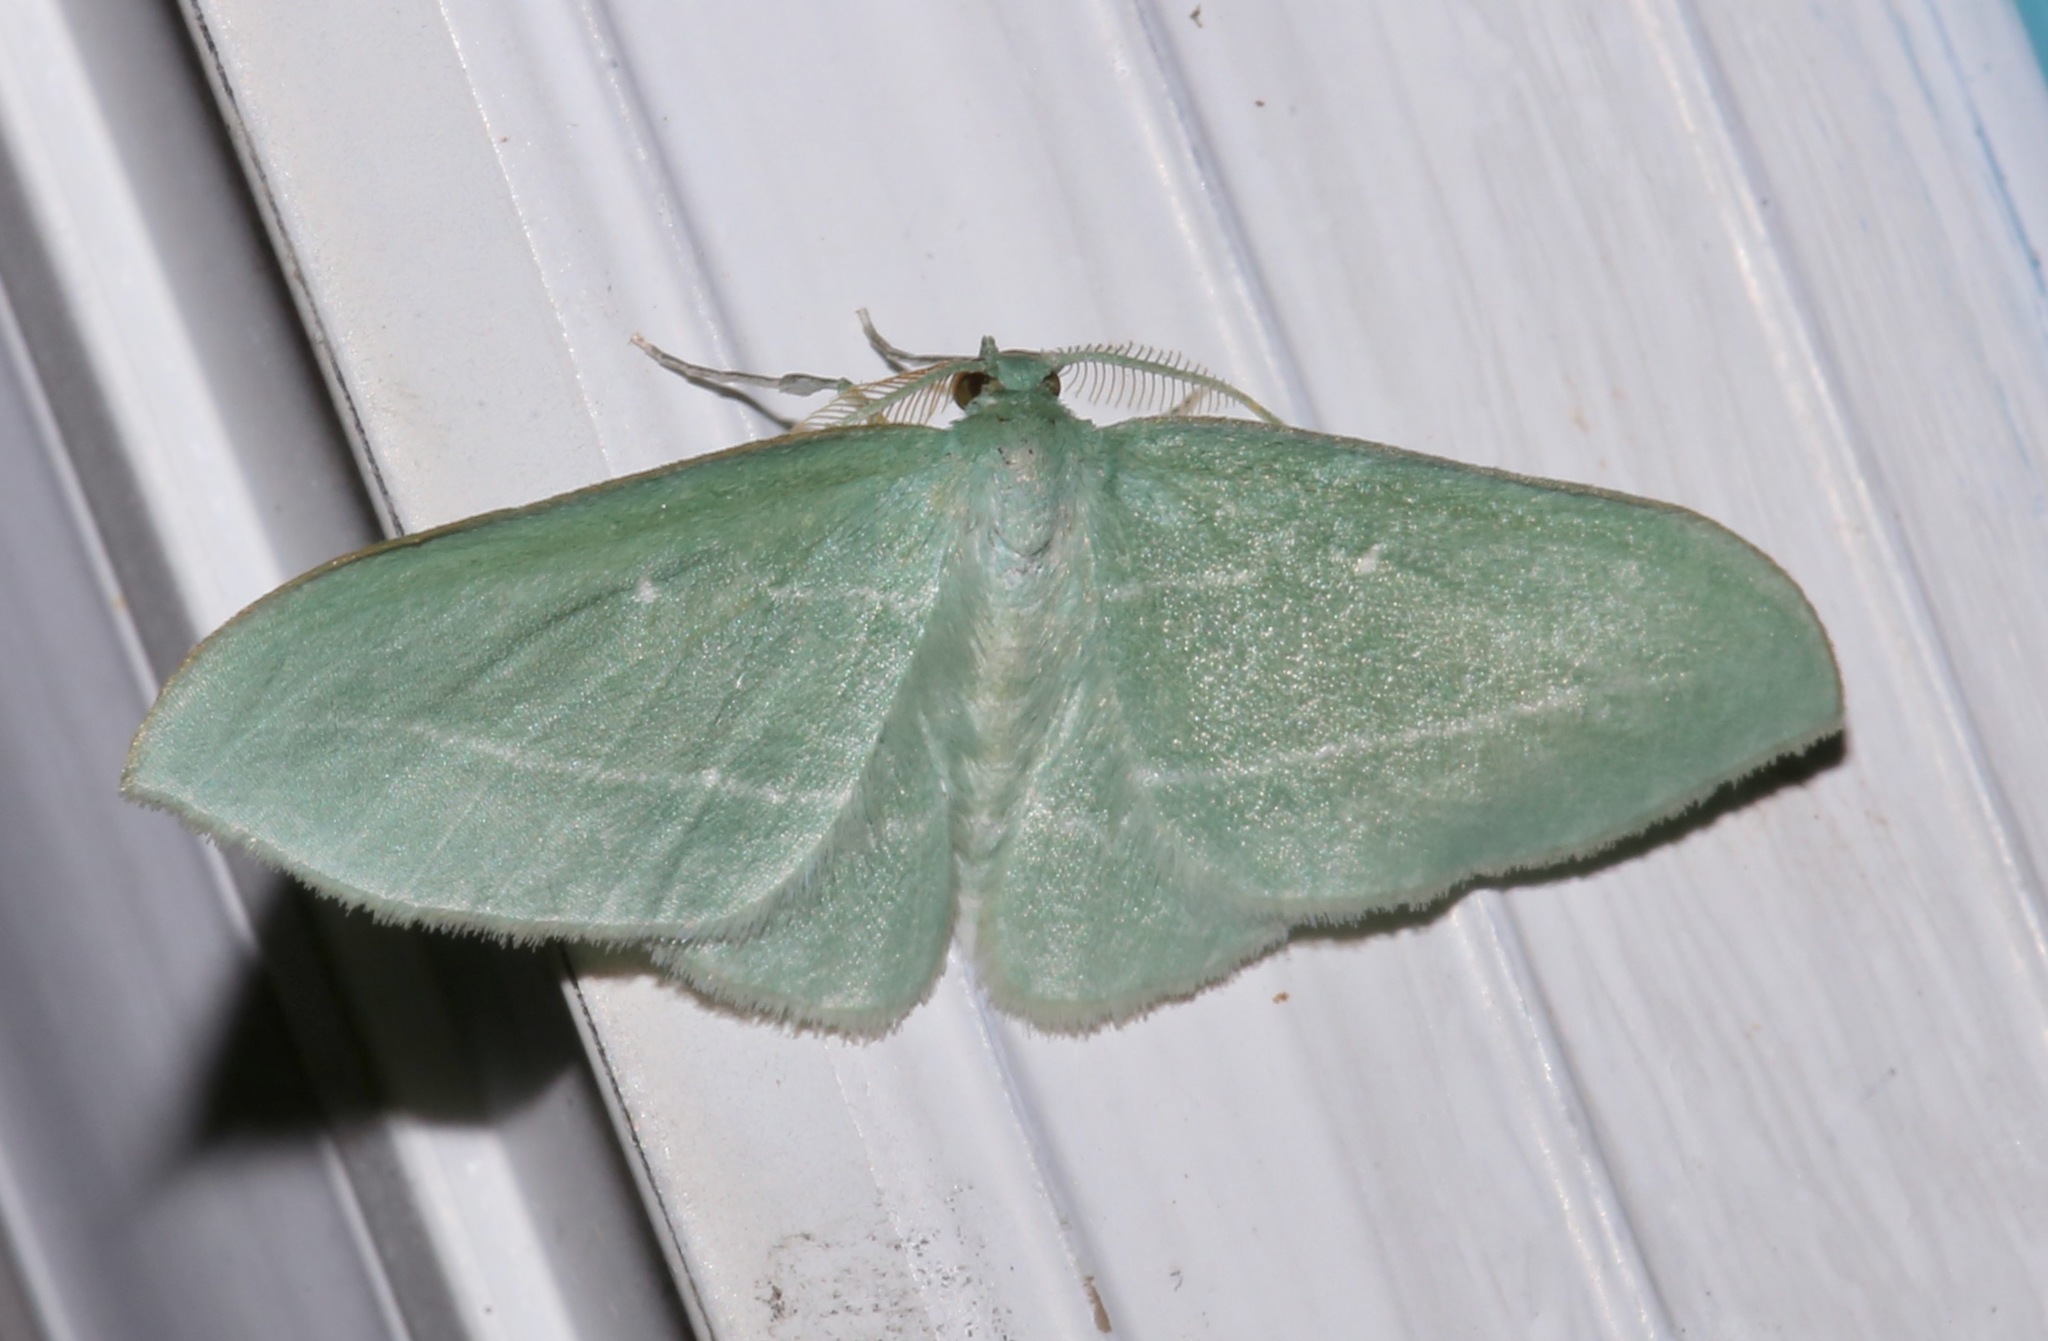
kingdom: Animalia
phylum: Arthropoda
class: Insecta
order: Lepidoptera
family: Geometridae
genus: Dyspteris
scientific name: Dyspteris abortivaria
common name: Bad-wing
